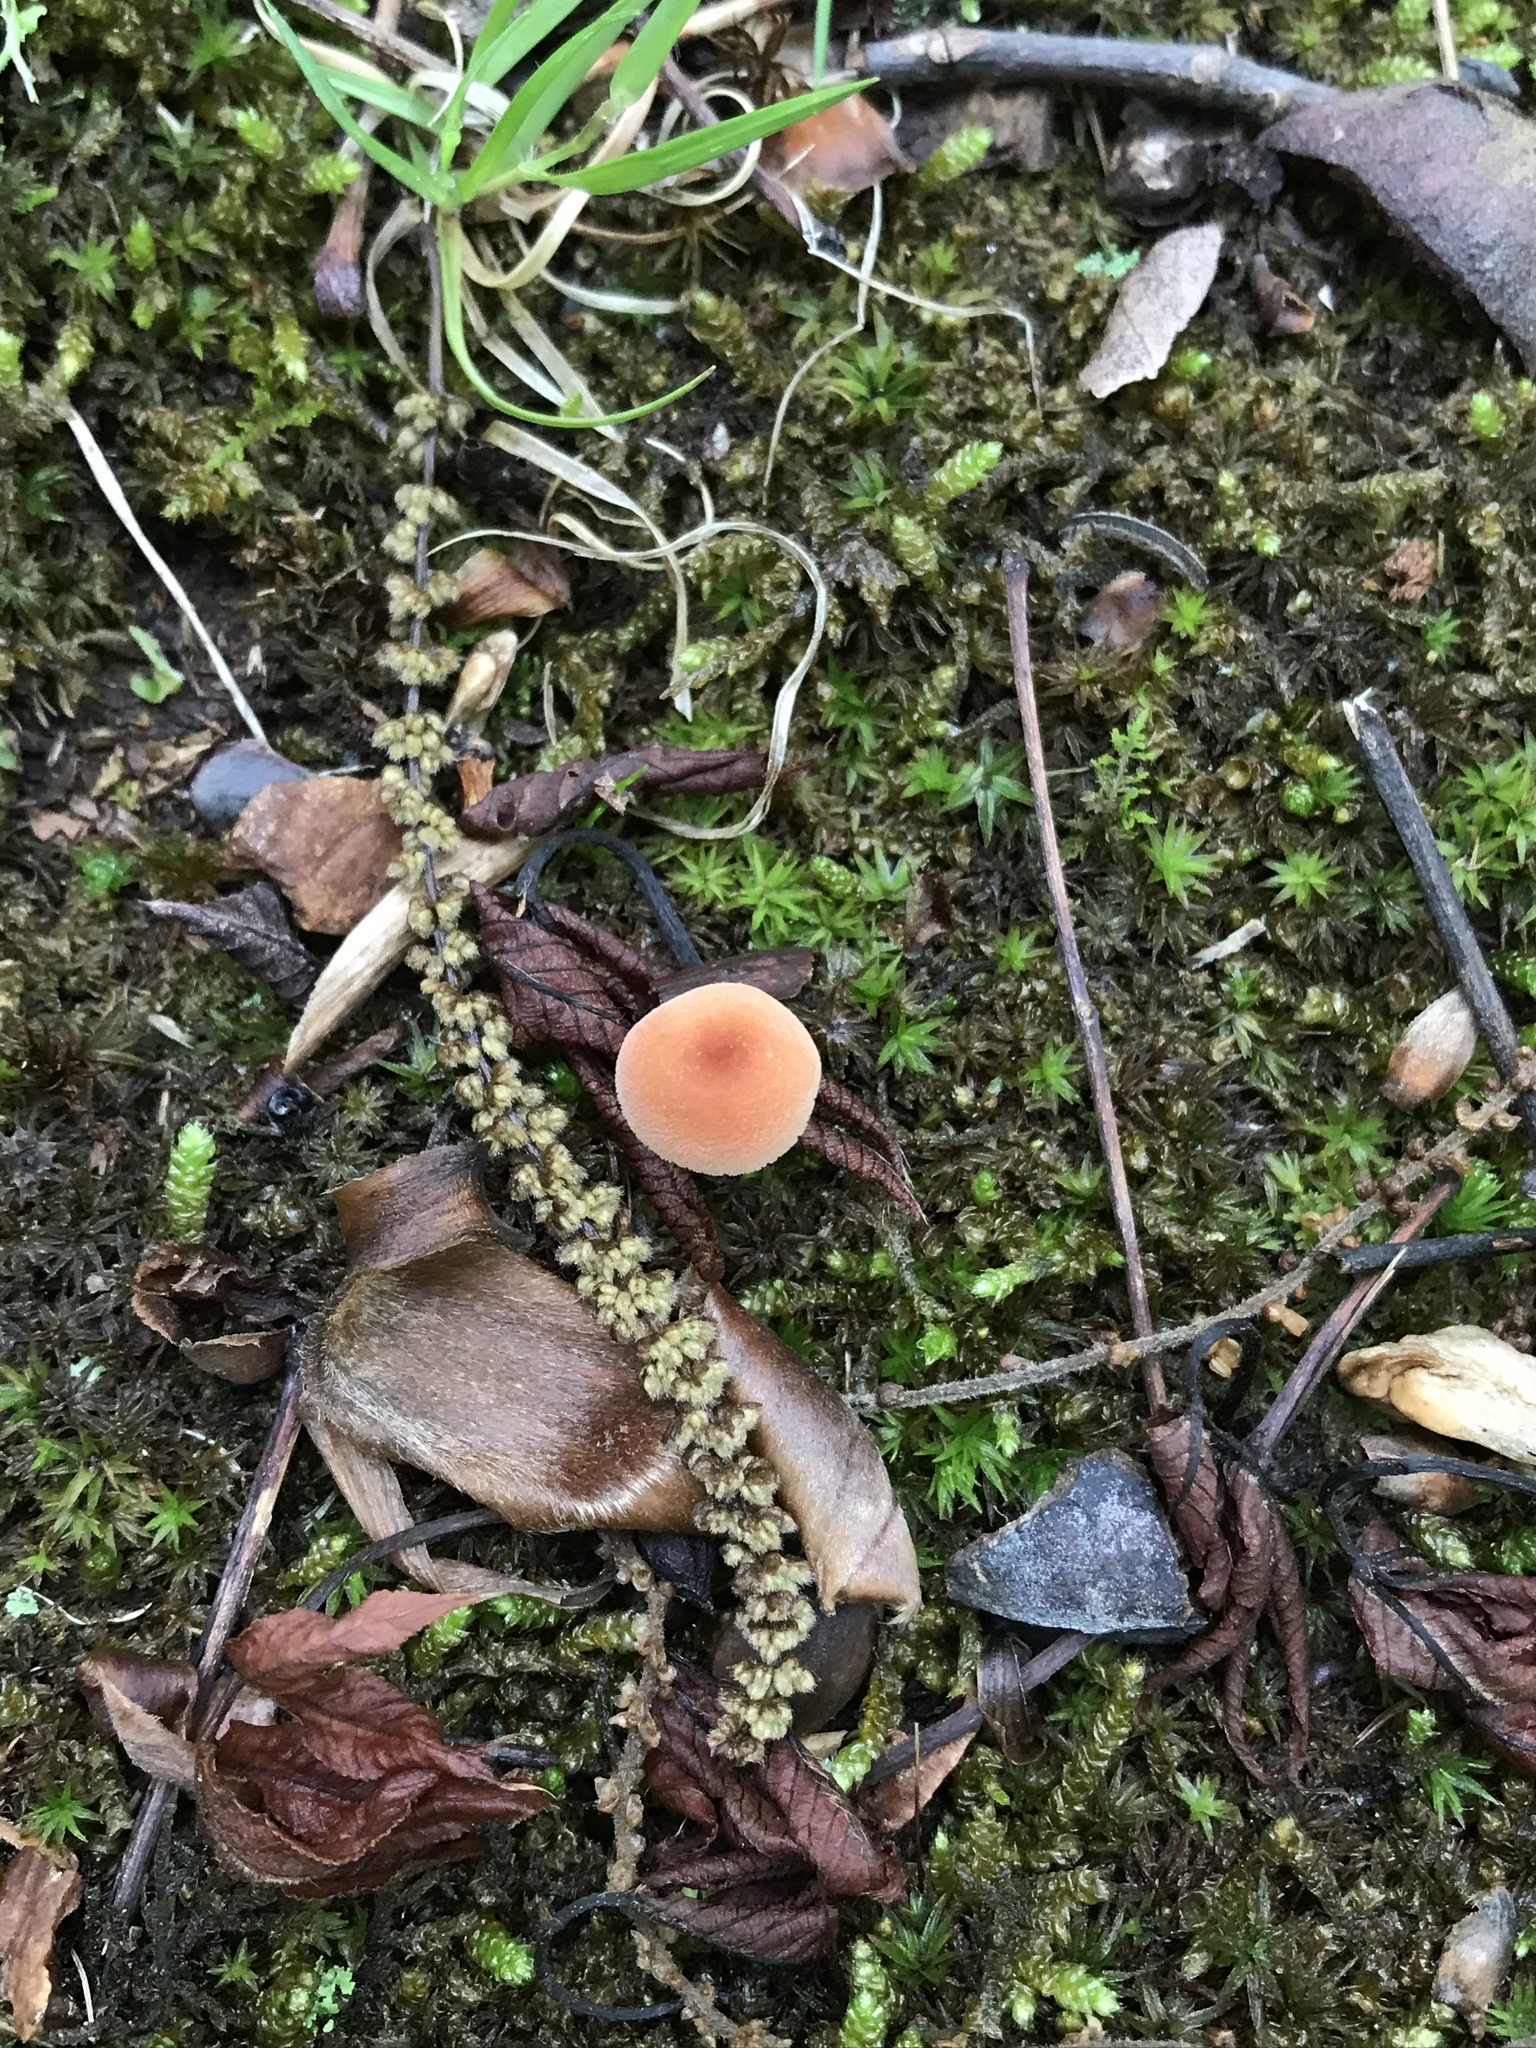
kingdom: Fungi
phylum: Basidiomycota
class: Agaricomycetes
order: Agaricales
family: Hydnangiaceae
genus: Laccaria
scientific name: Laccaria laccata
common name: Deceiver
